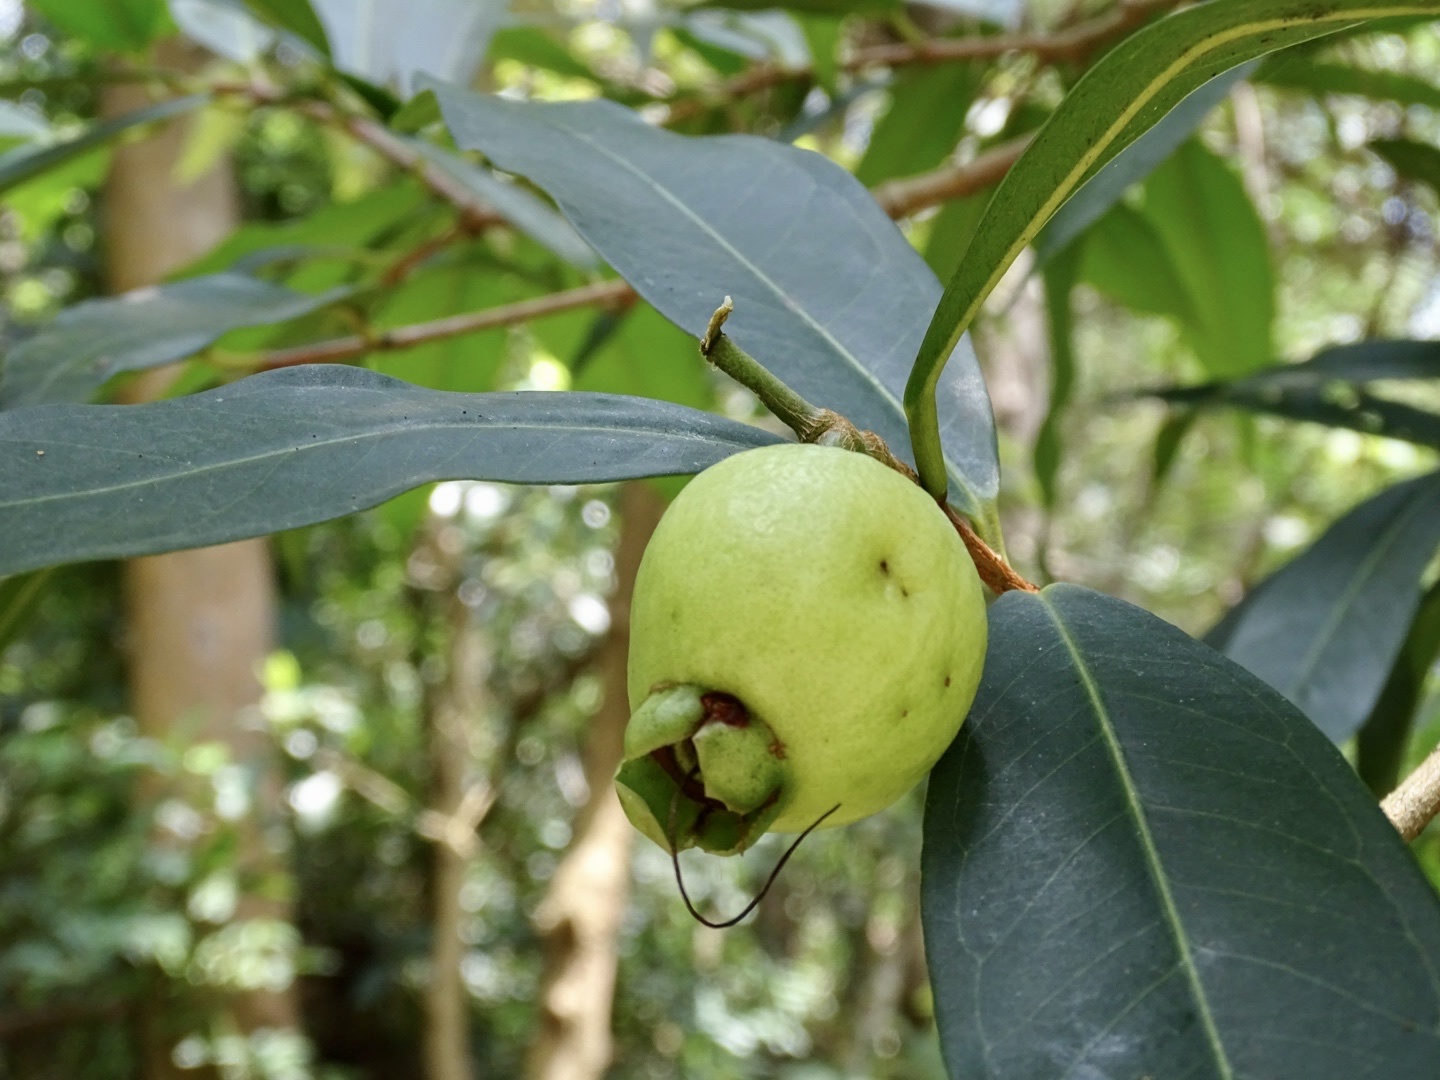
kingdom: Plantae
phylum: Tracheophyta
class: Magnoliopsida
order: Myrtales
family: Myrtaceae
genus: Syzygium
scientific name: Syzygium jambos
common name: Malabar plum
